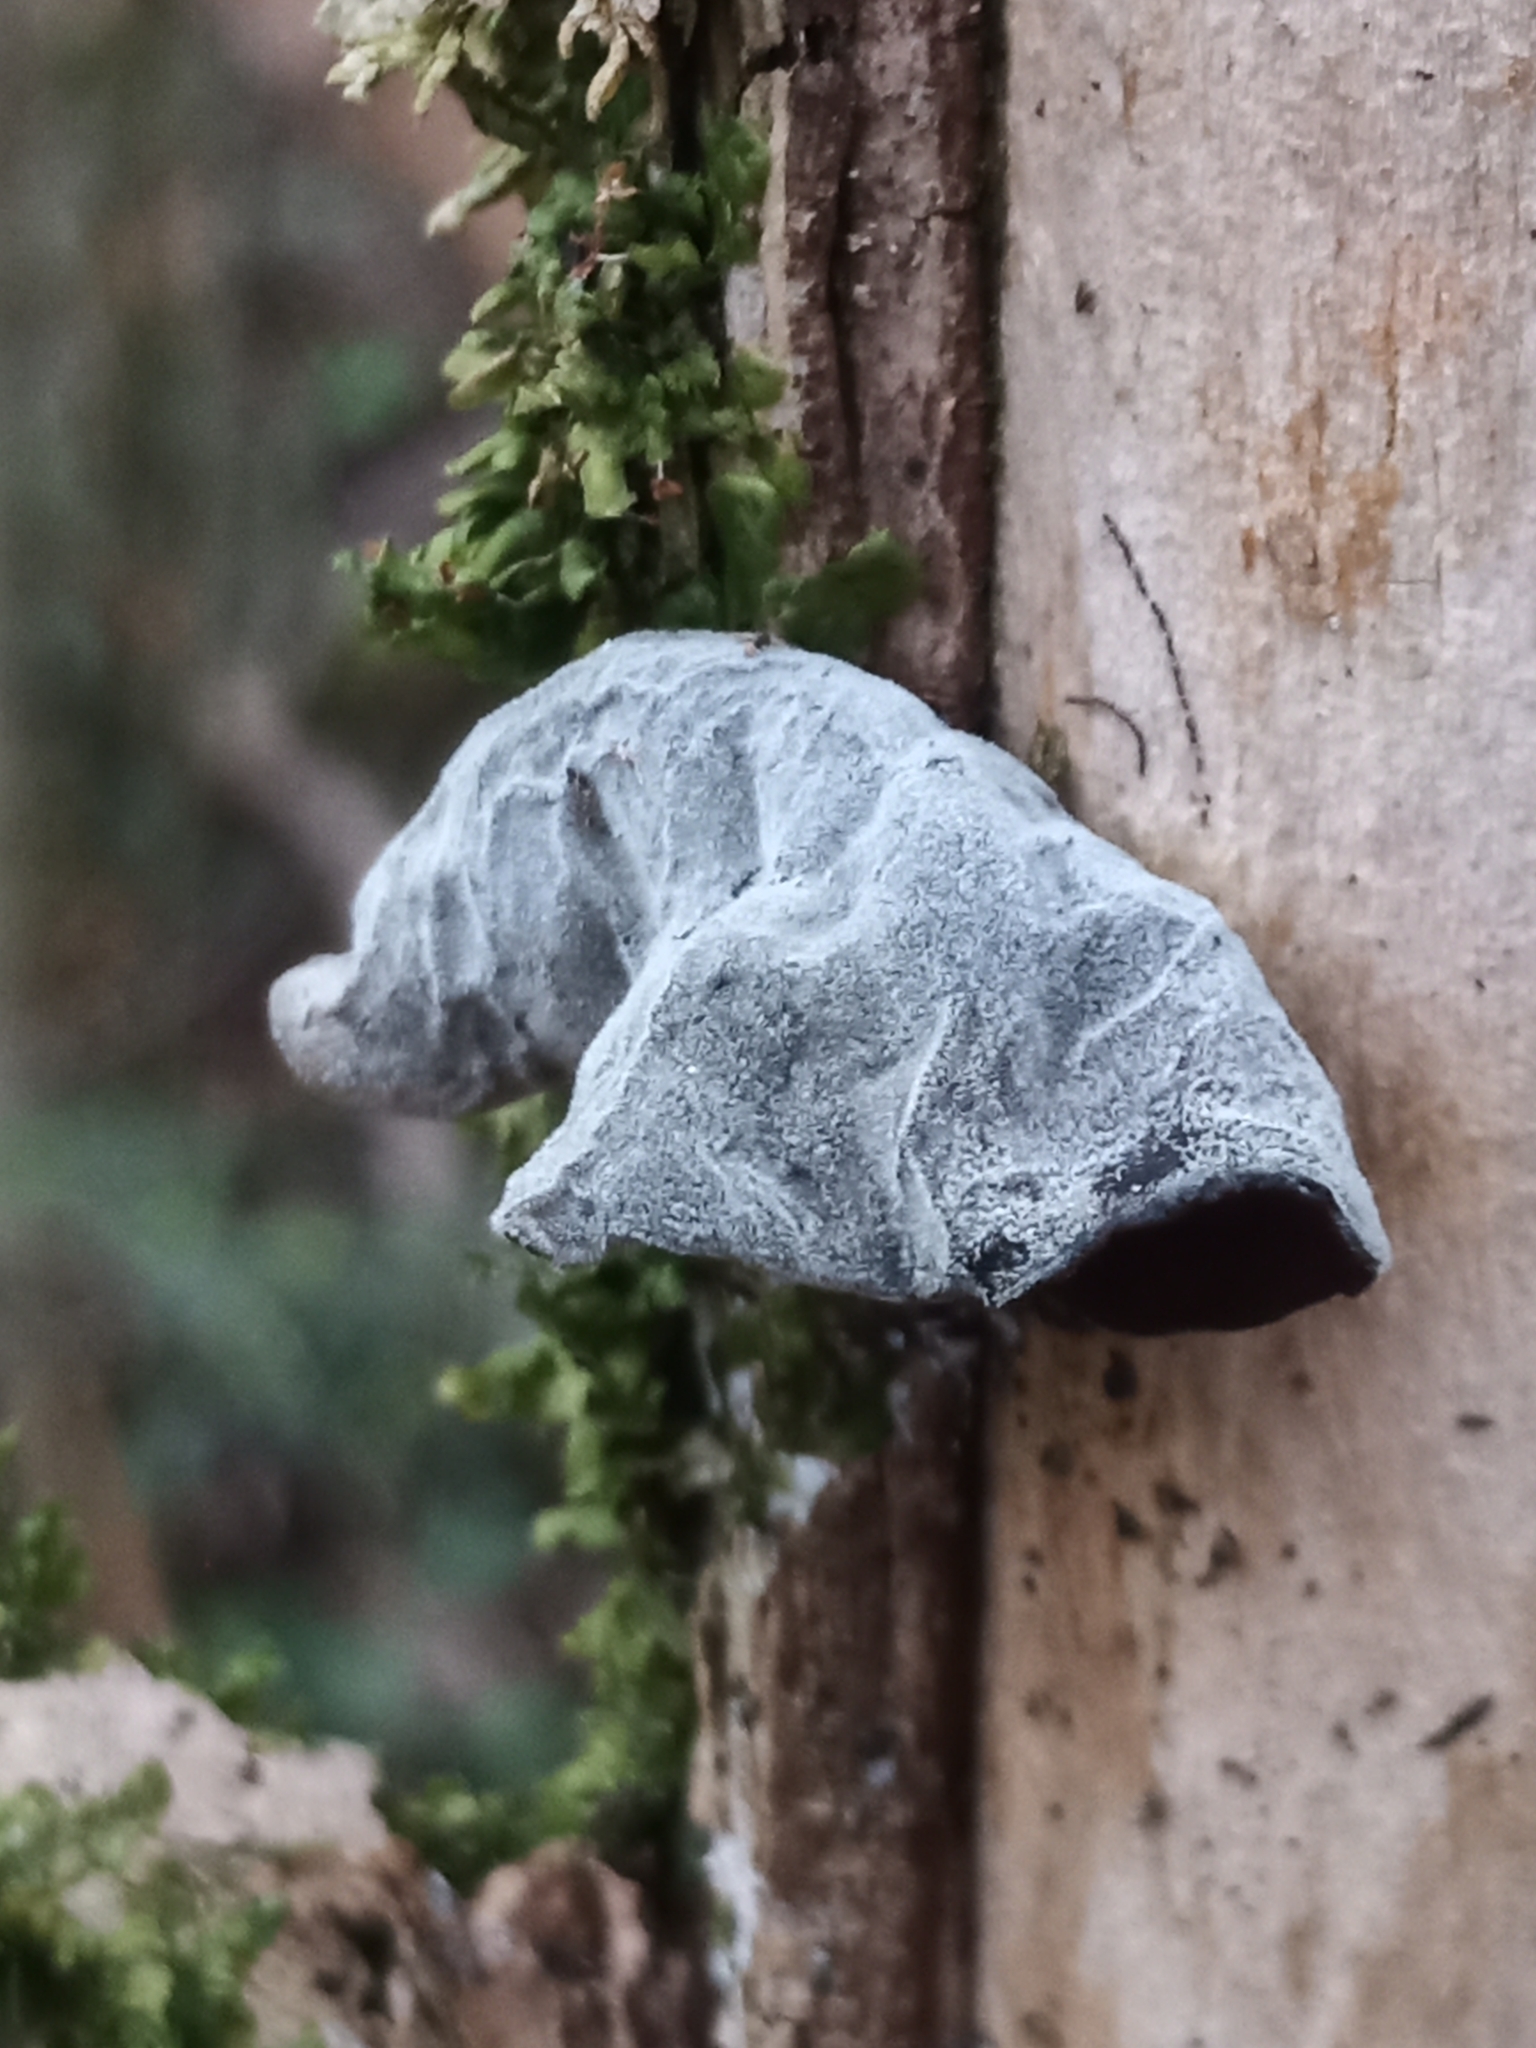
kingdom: Fungi
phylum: Basidiomycota
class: Agaricomycetes
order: Auriculariales
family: Auriculariaceae
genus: Auricularia
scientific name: Auricularia auricula-judae
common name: Jelly ear
